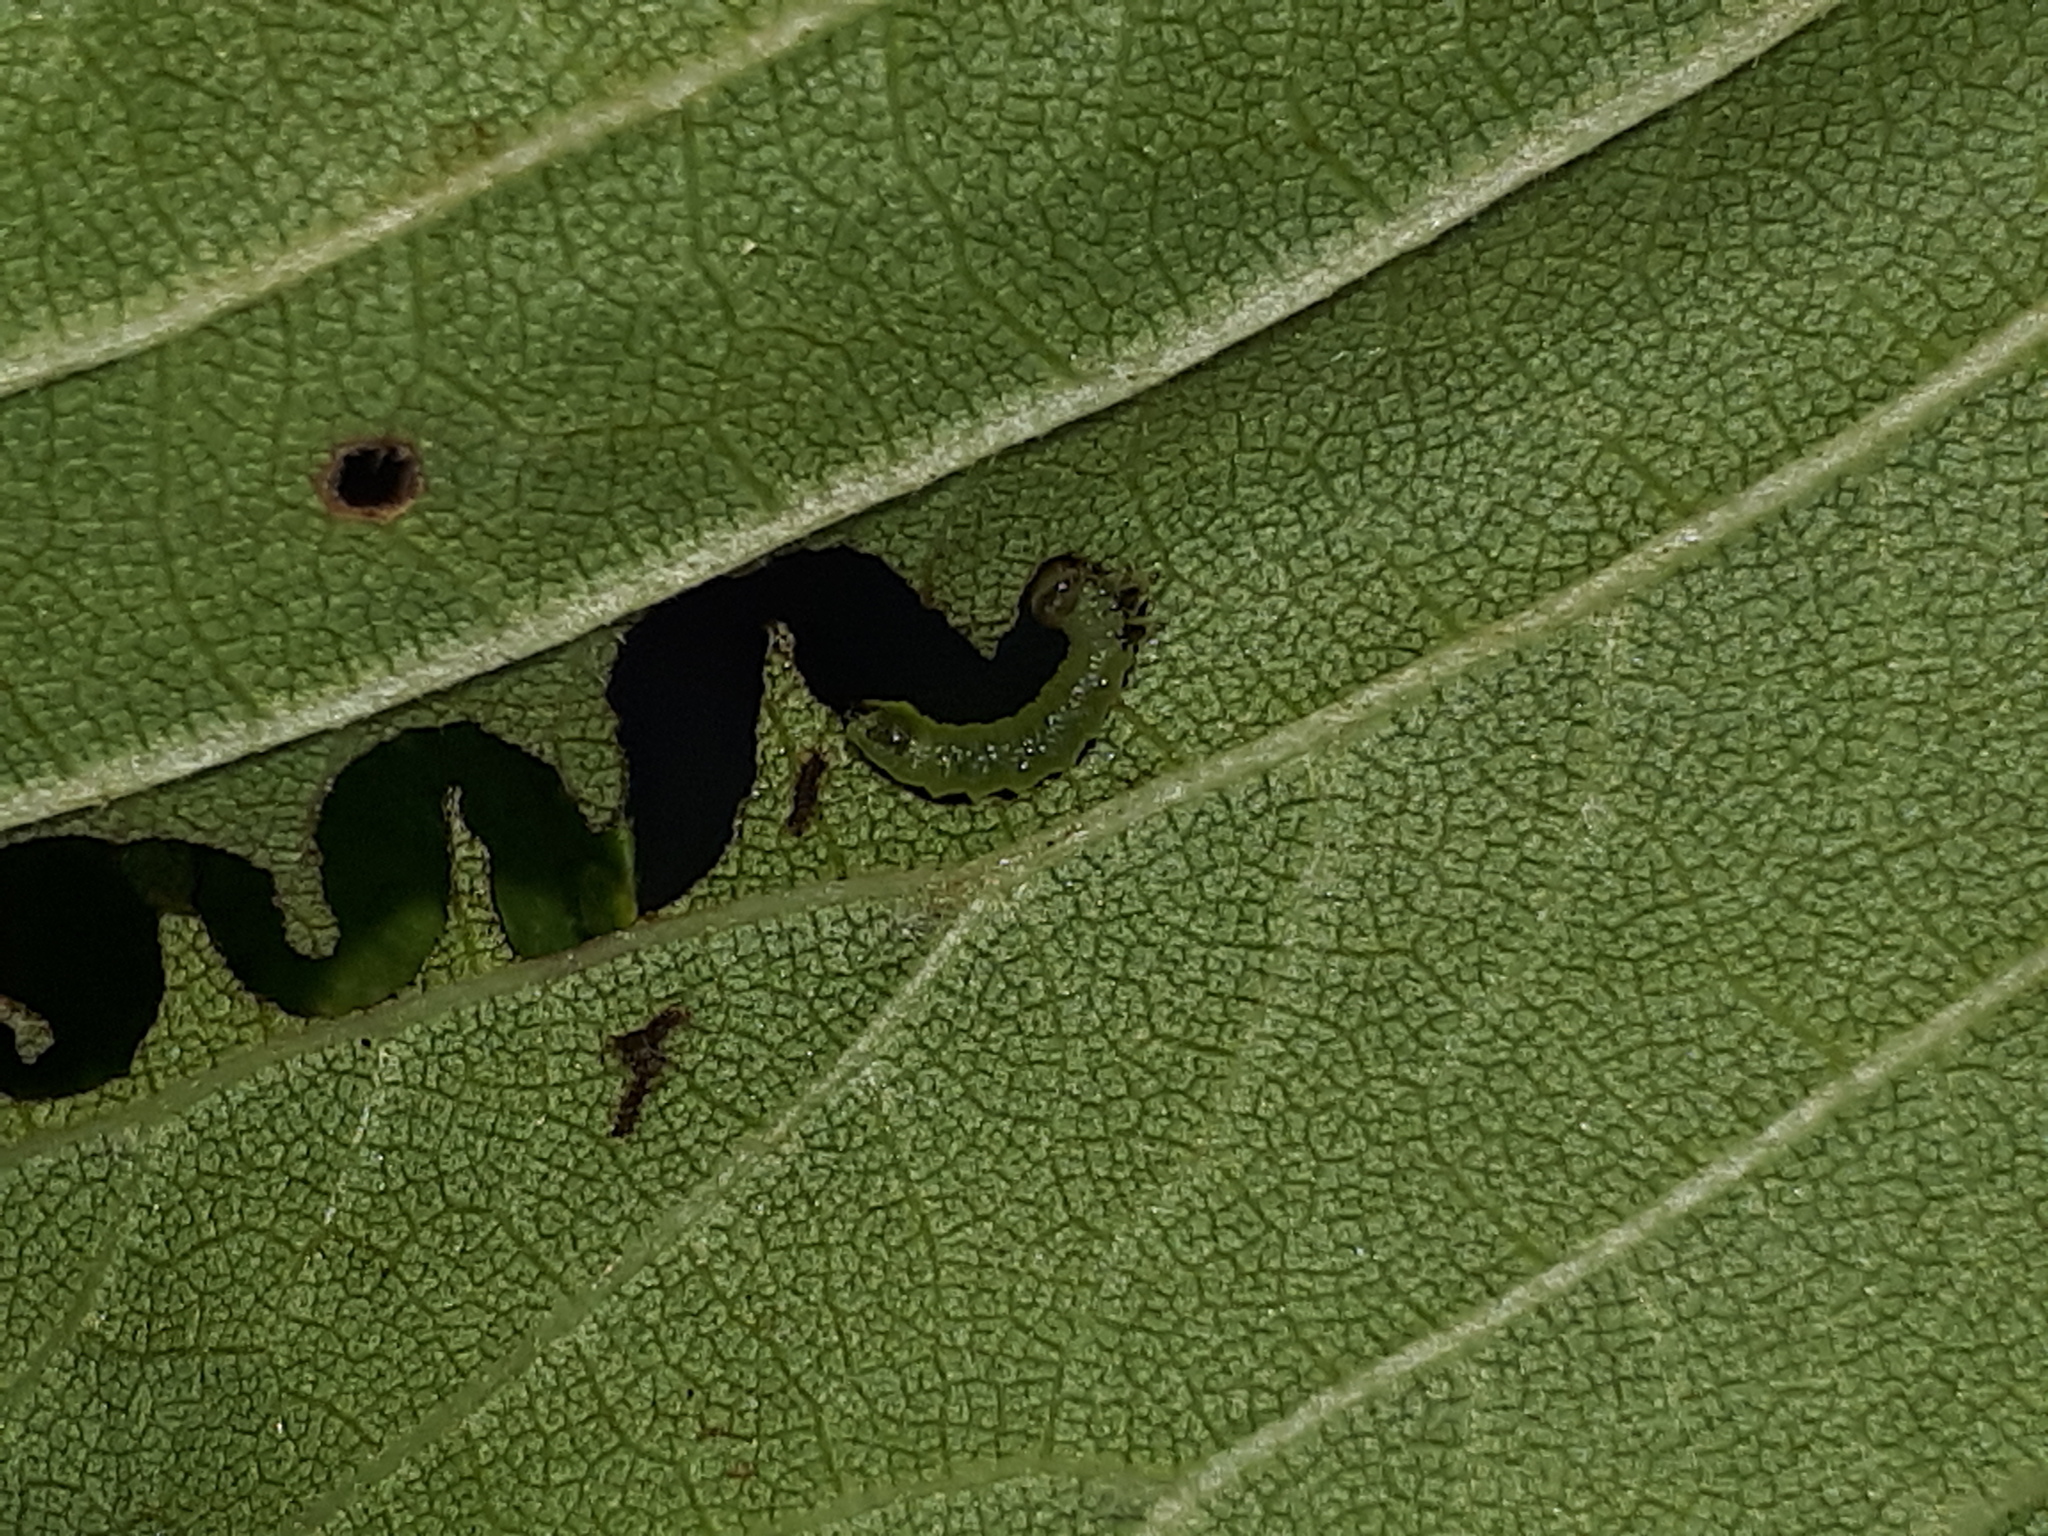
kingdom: Animalia
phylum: Arthropoda
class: Insecta
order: Hymenoptera
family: Argidae
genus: Aproceros
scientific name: Aproceros leucopoda
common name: Zig-zag elm sawfly
